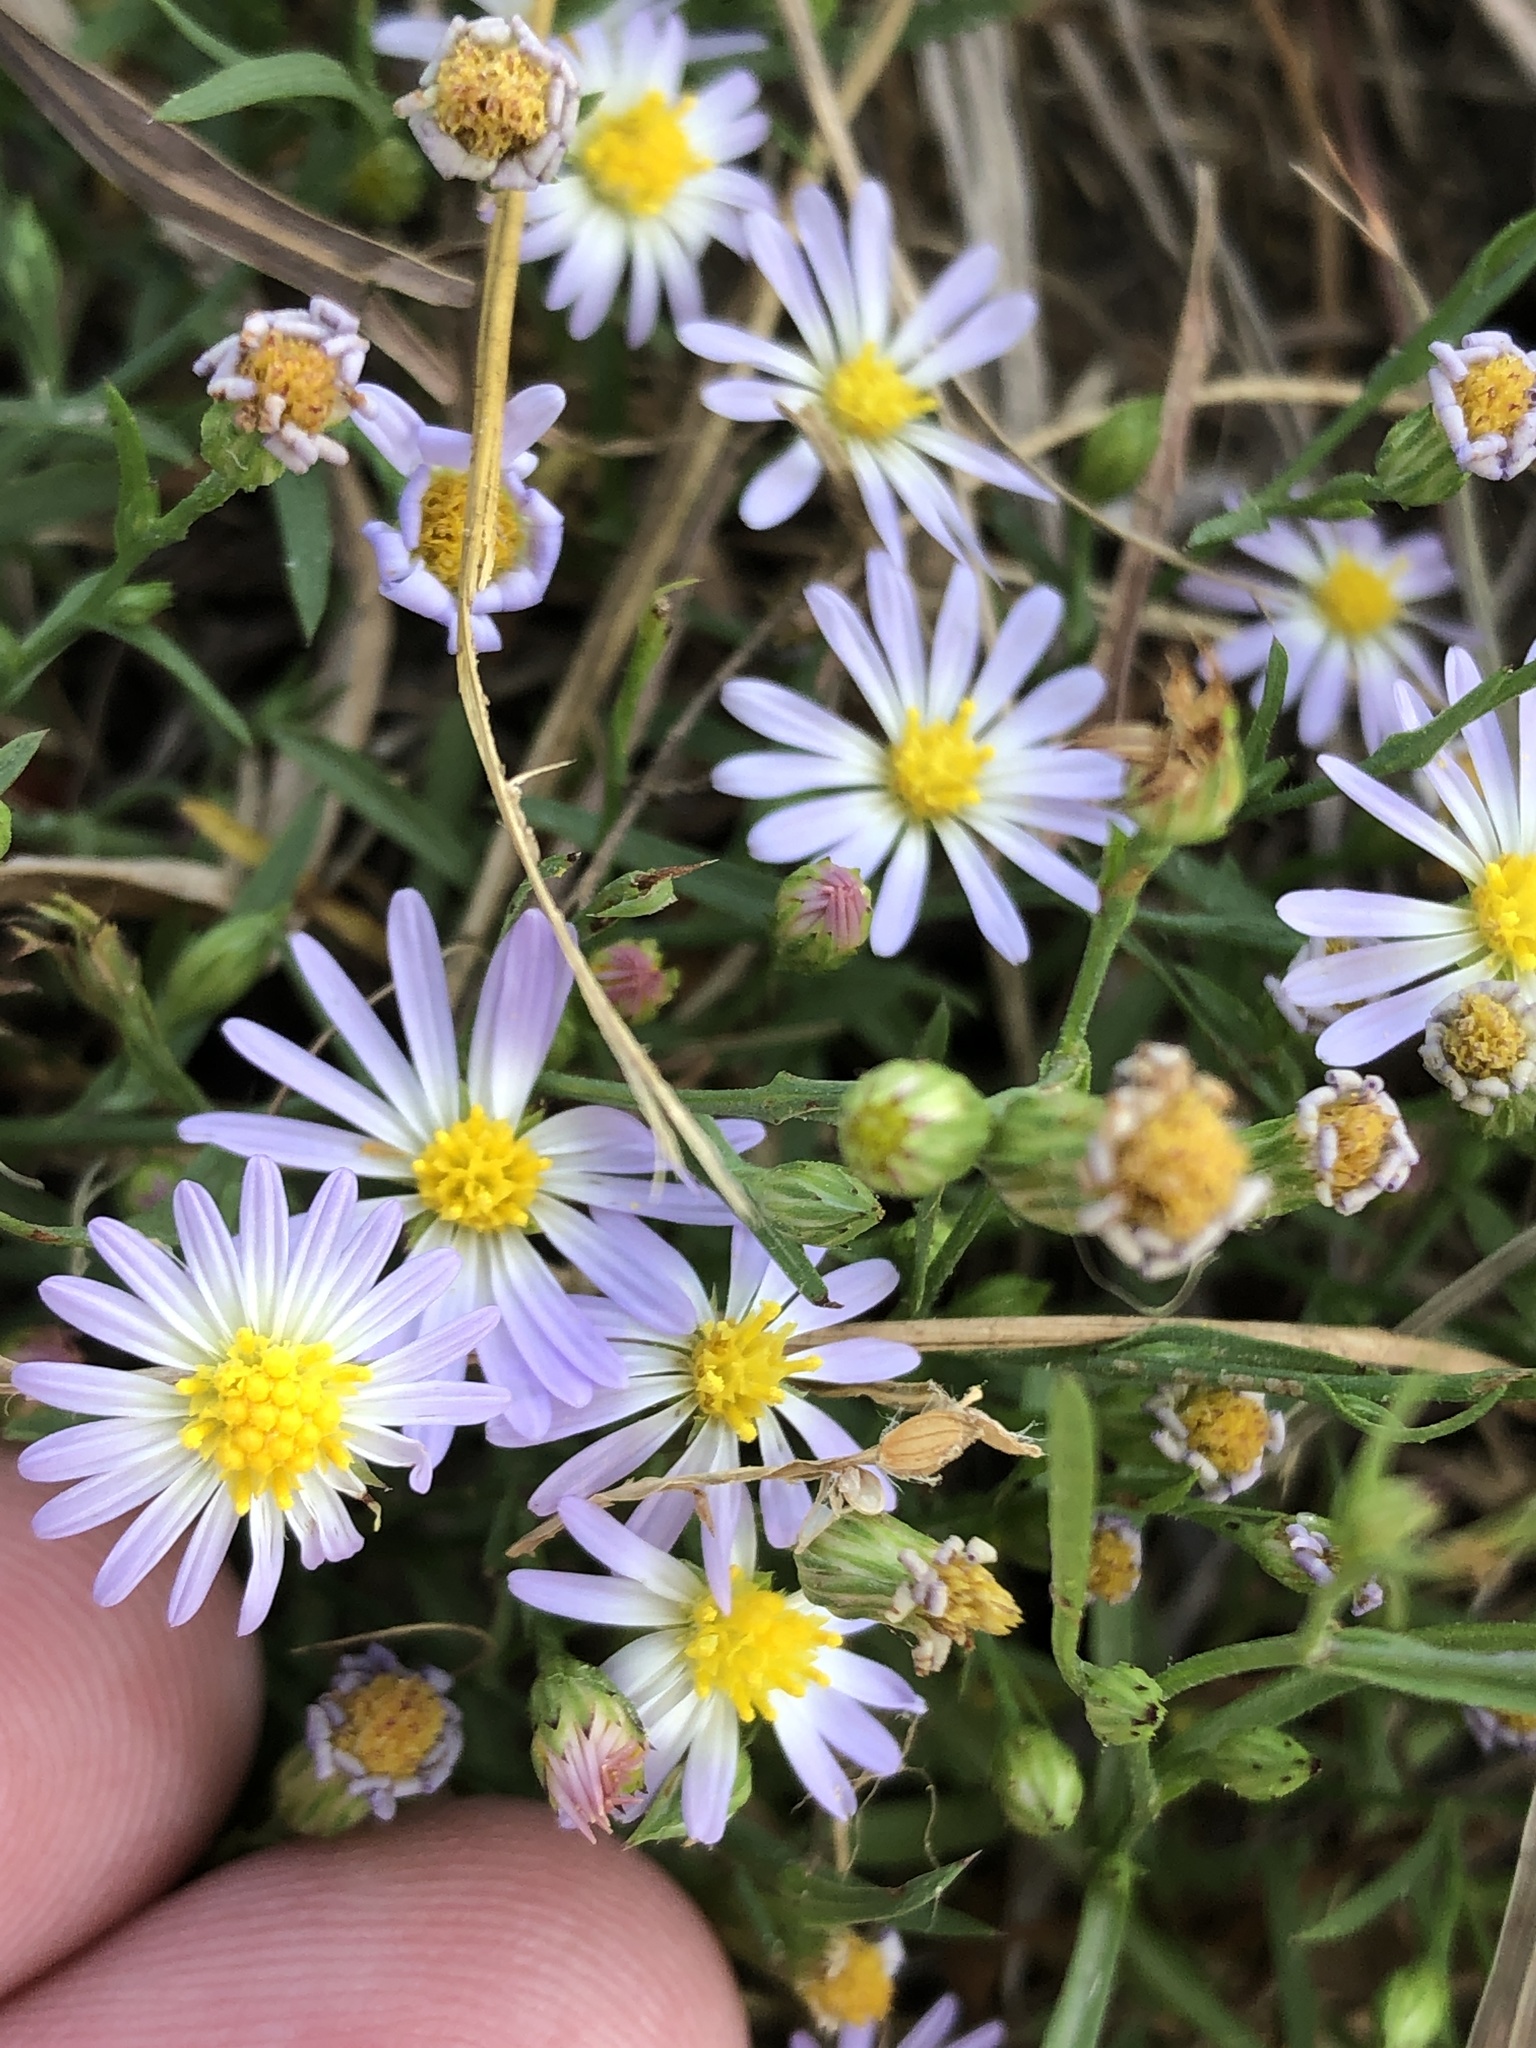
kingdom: Plantae
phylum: Tracheophyta
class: Magnoliopsida
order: Asterales
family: Asteraceae
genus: Symphyotrichum
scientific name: Symphyotrichum divaricatum
